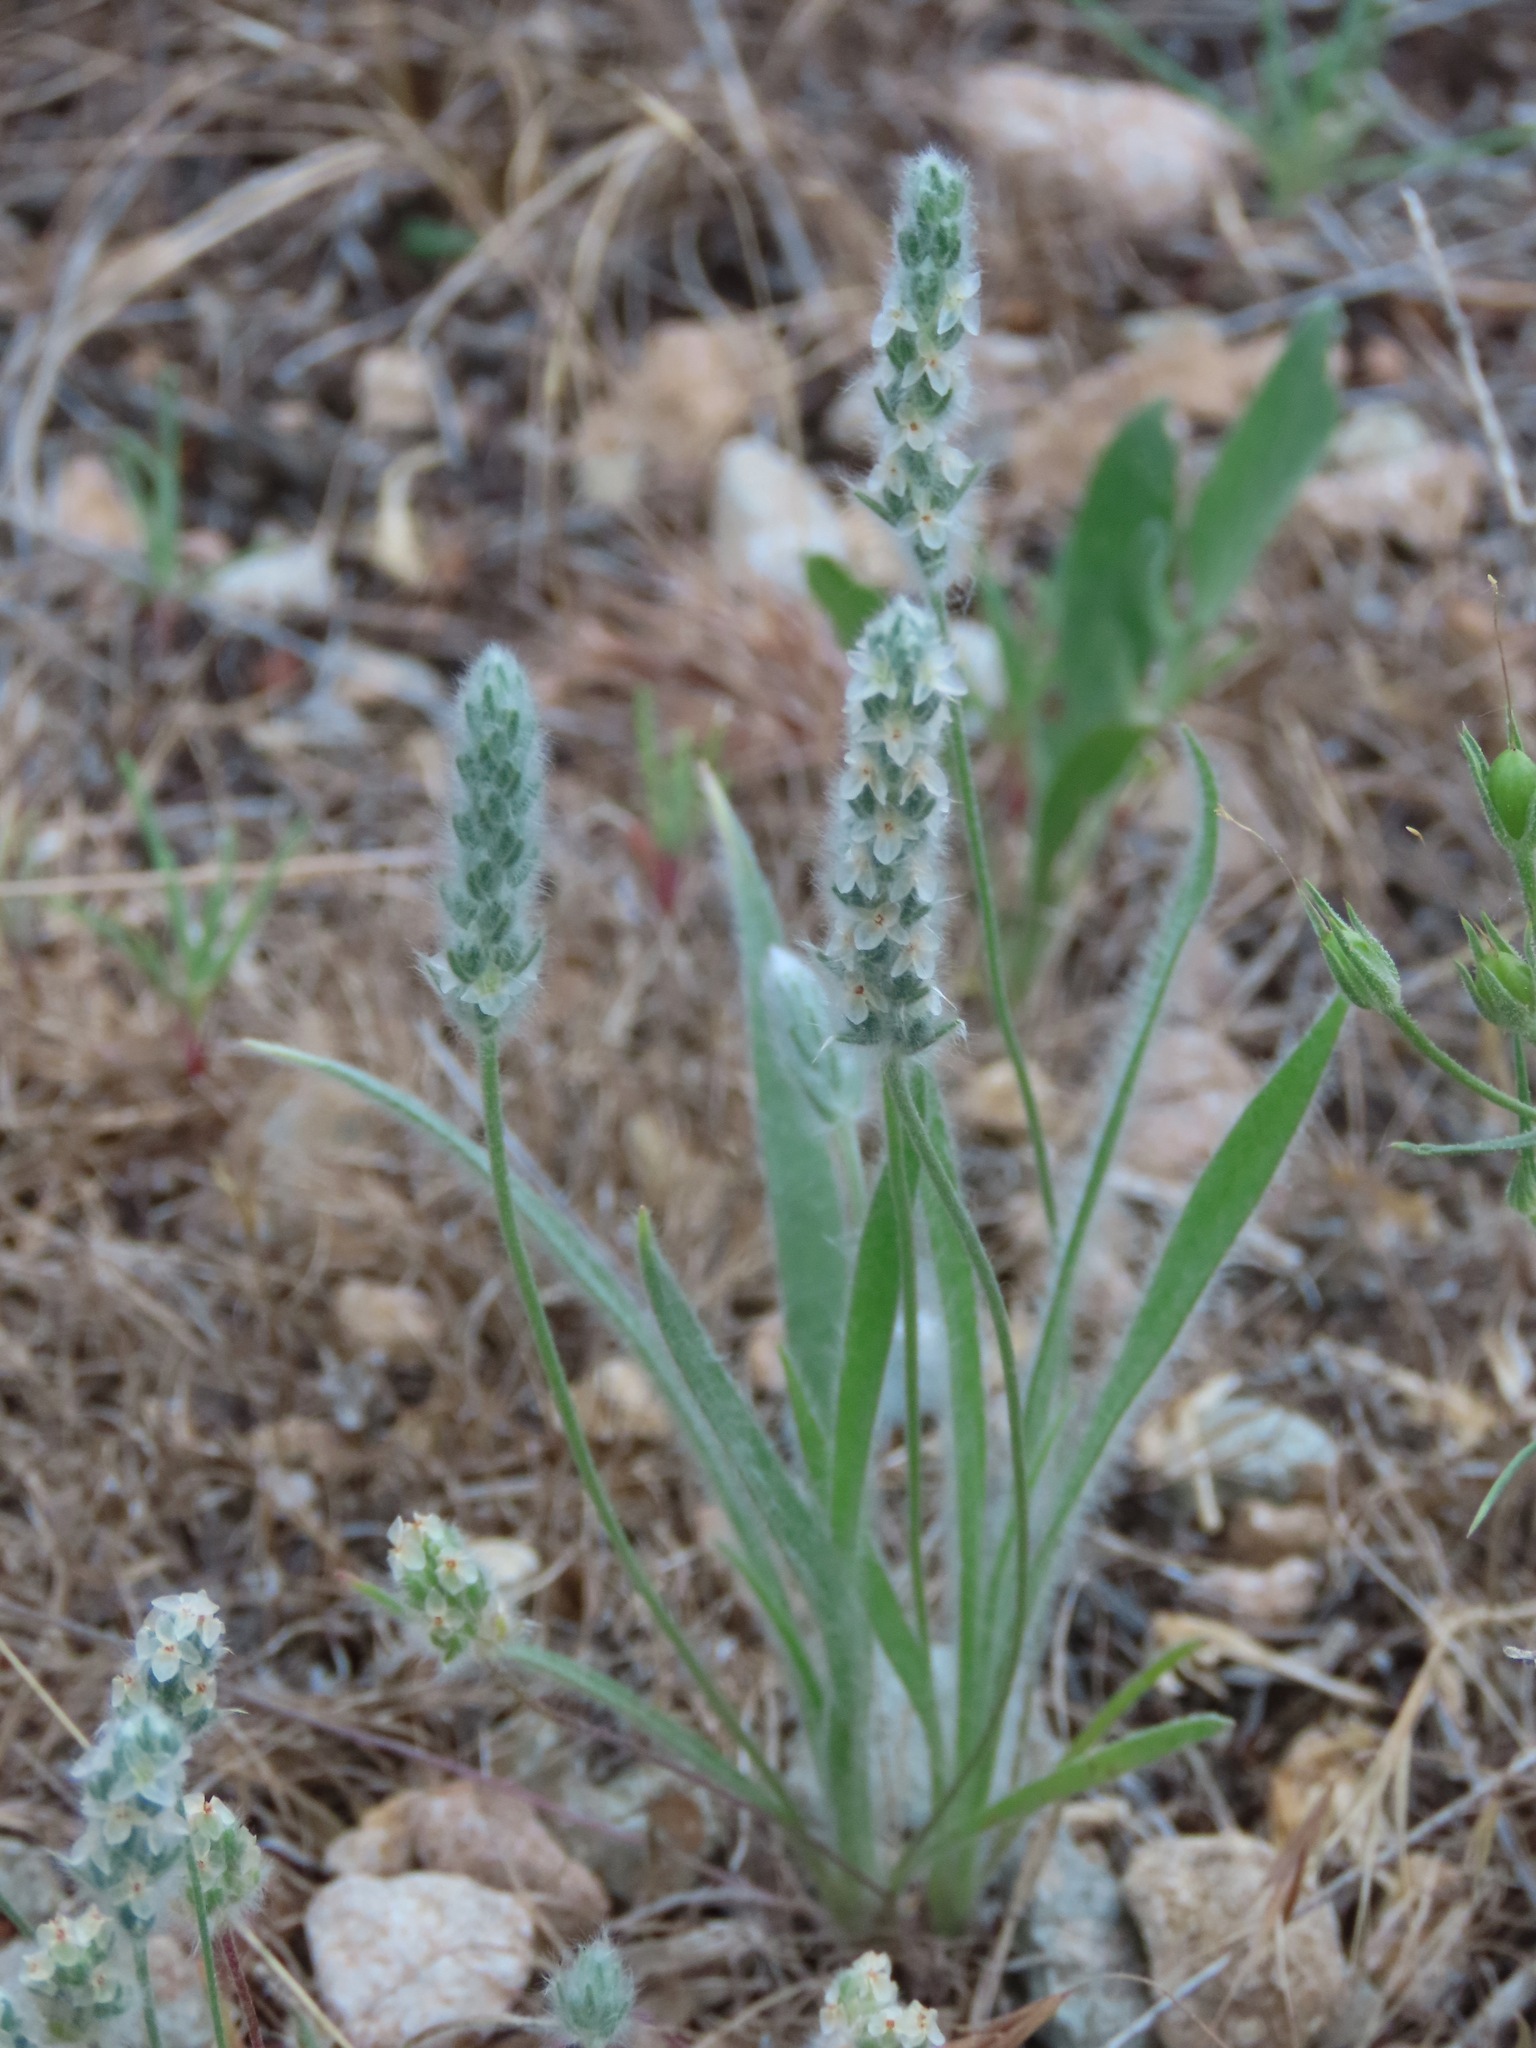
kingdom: Plantae
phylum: Tracheophyta
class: Magnoliopsida
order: Lamiales
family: Plantaginaceae
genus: Plantago
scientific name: Plantago patagonica
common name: Patagonia indian-wheat
